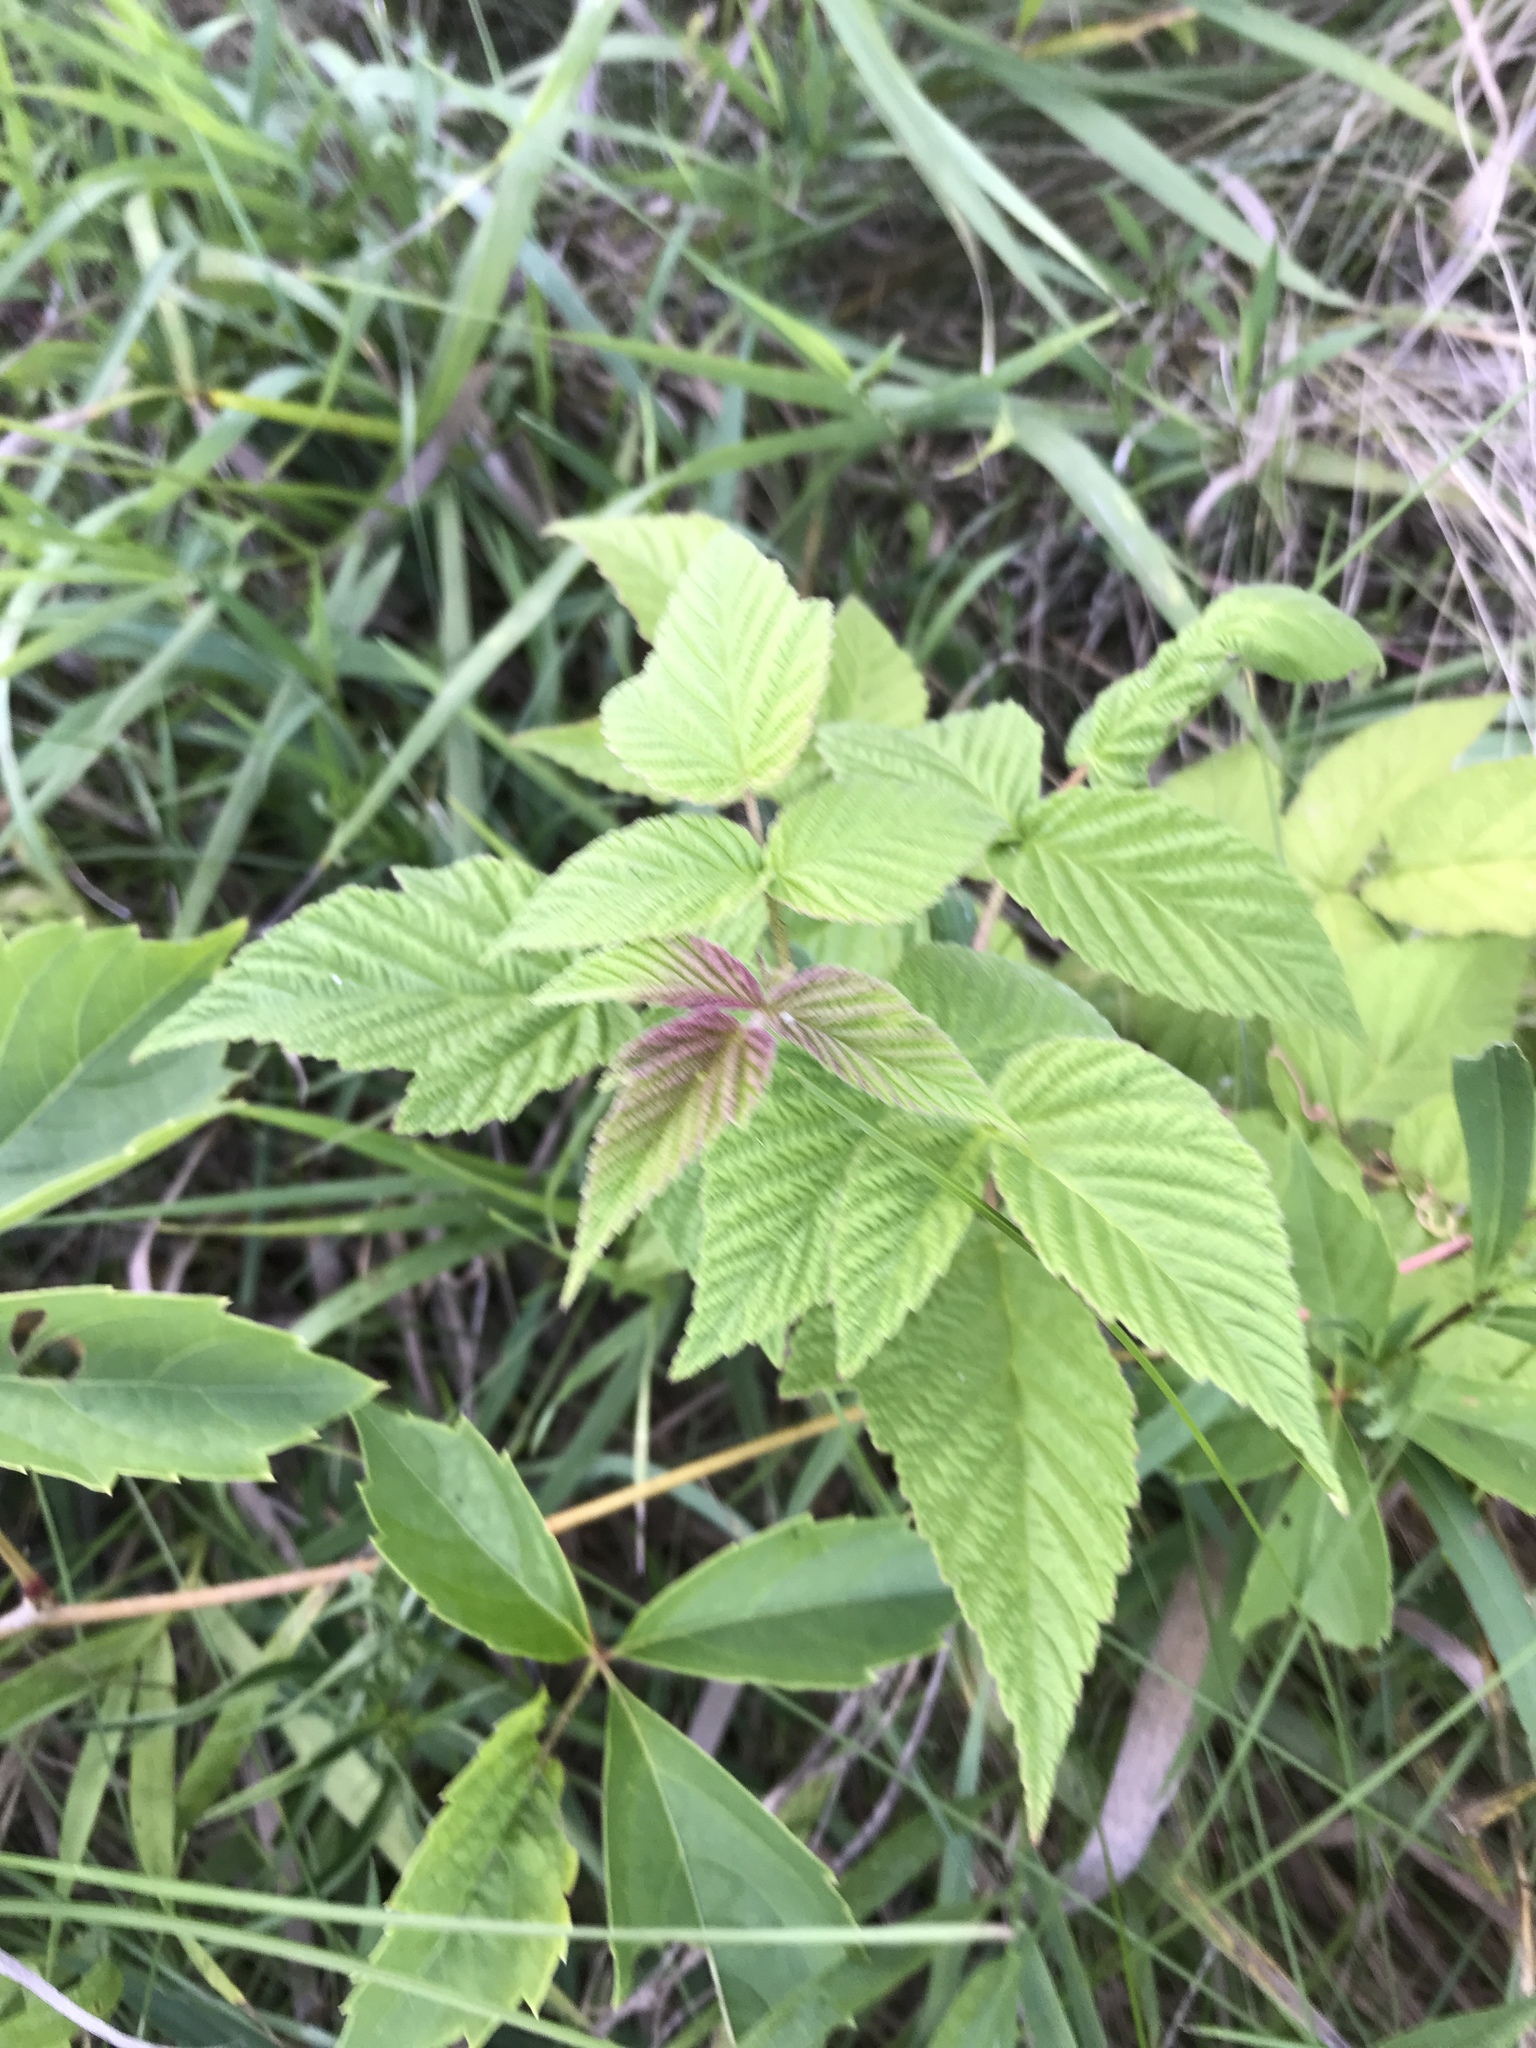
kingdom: Plantae
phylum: Tracheophyta
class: Magnoliopsida
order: Rosales
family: Rosaceae
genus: Rubus
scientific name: Rubus idaeus
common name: Raspberry
